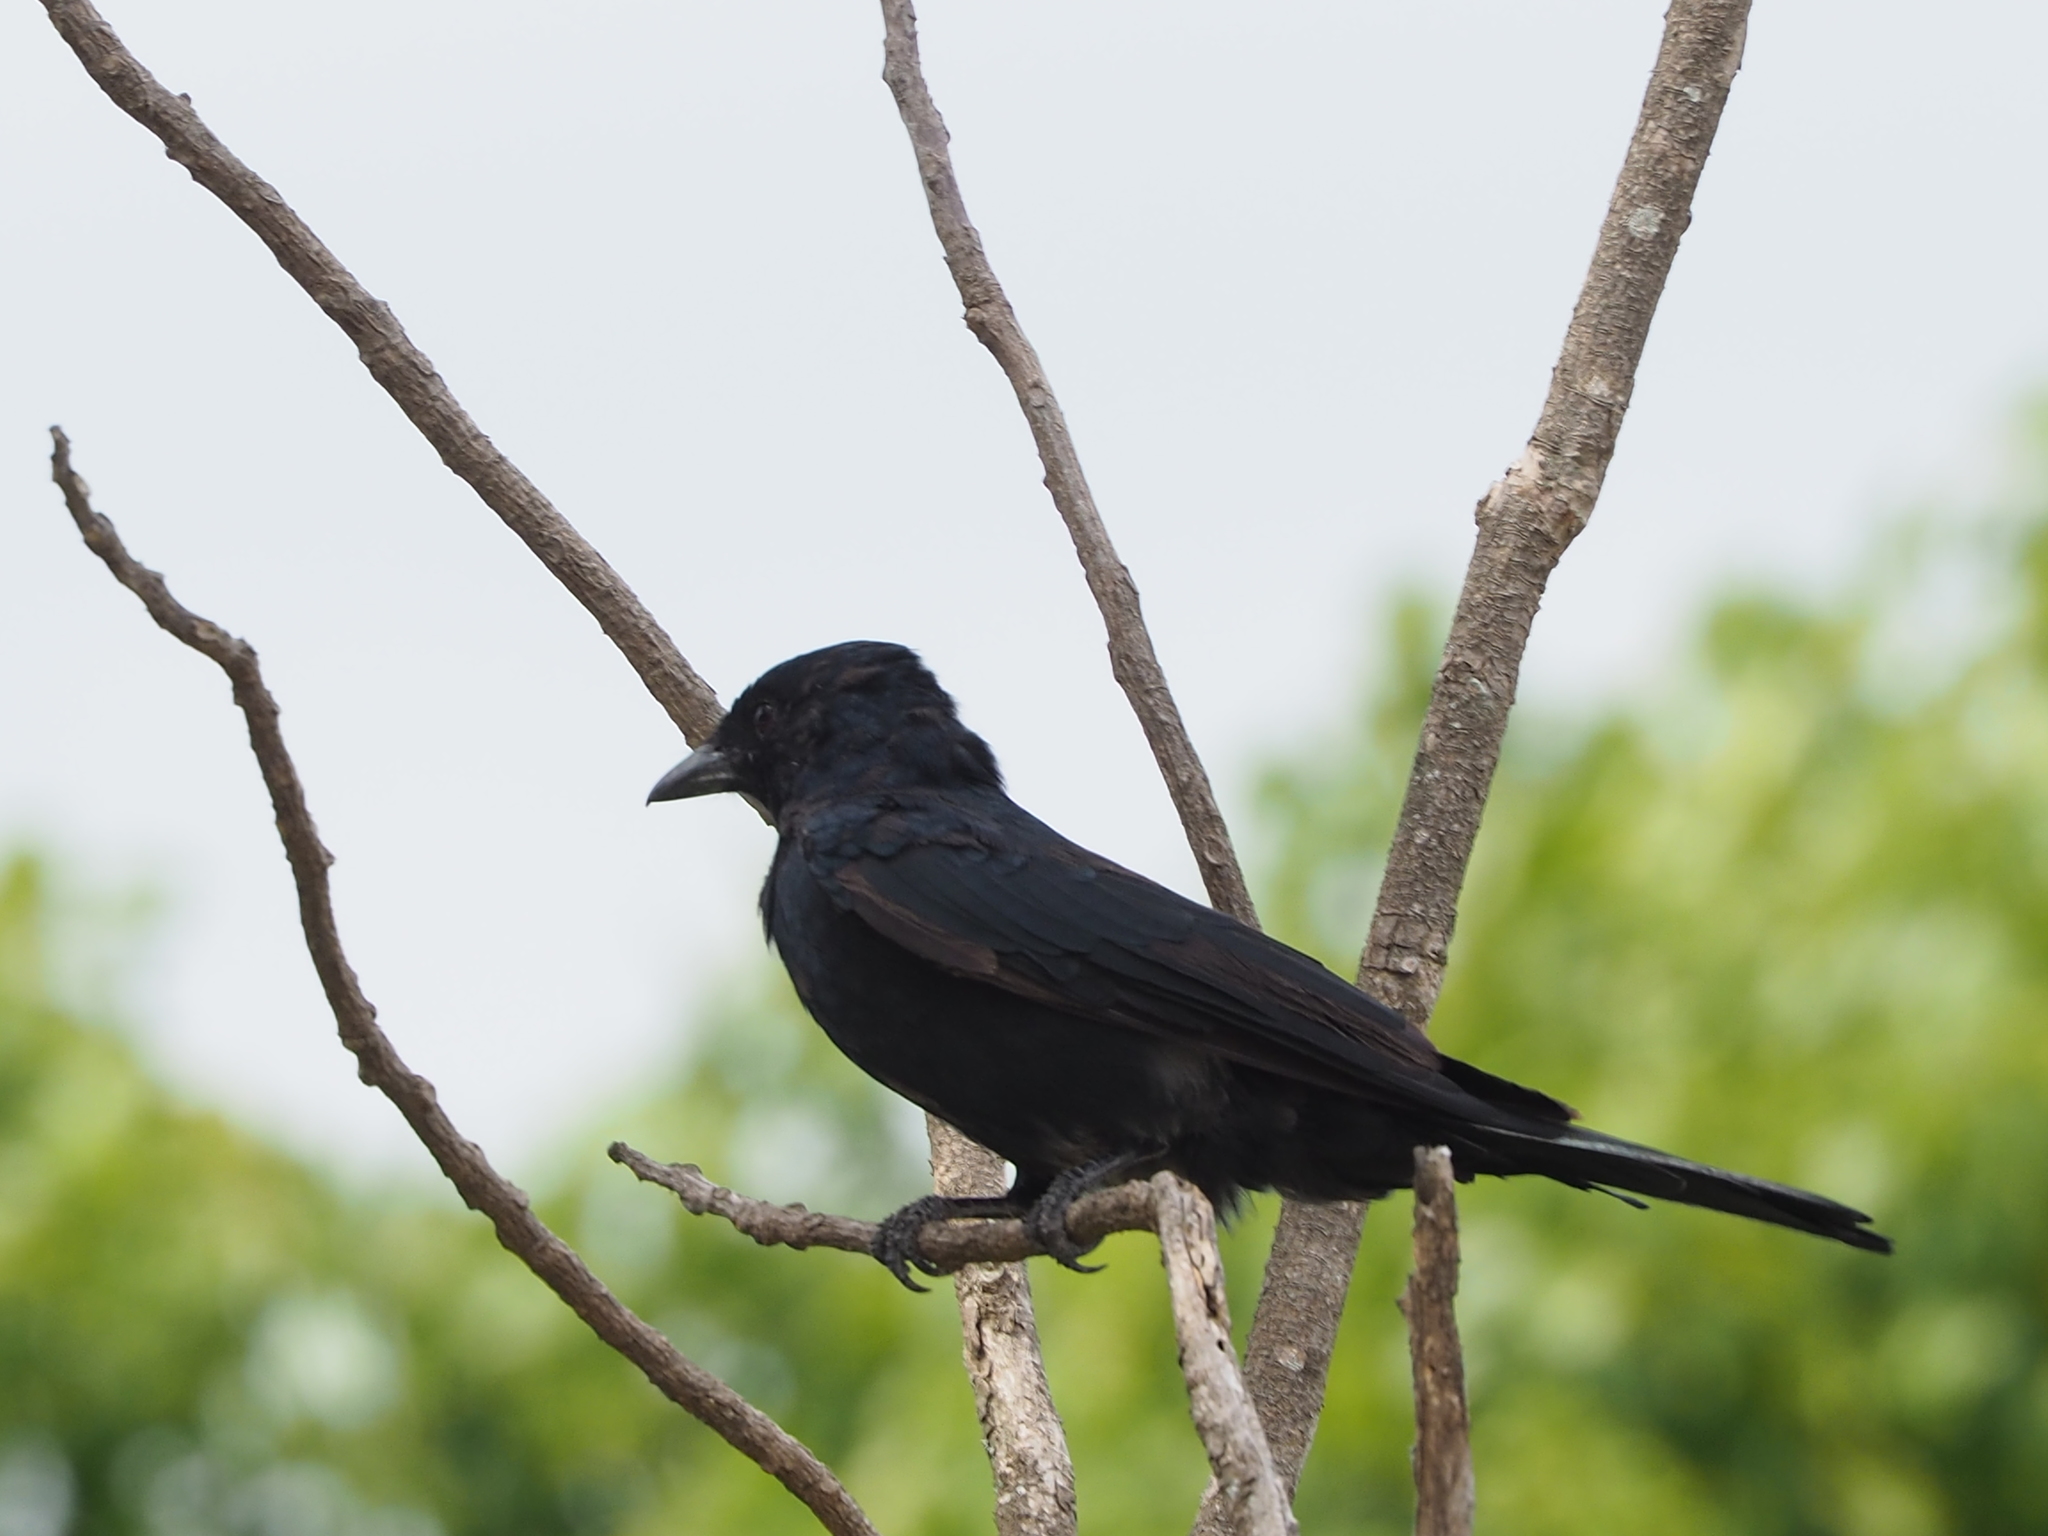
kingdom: Animalia
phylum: Chordata
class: Aves
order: Passeriformes
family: Dicruridae
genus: Dicrurus
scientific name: Dicrurus macrocercus
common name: Black drongo
